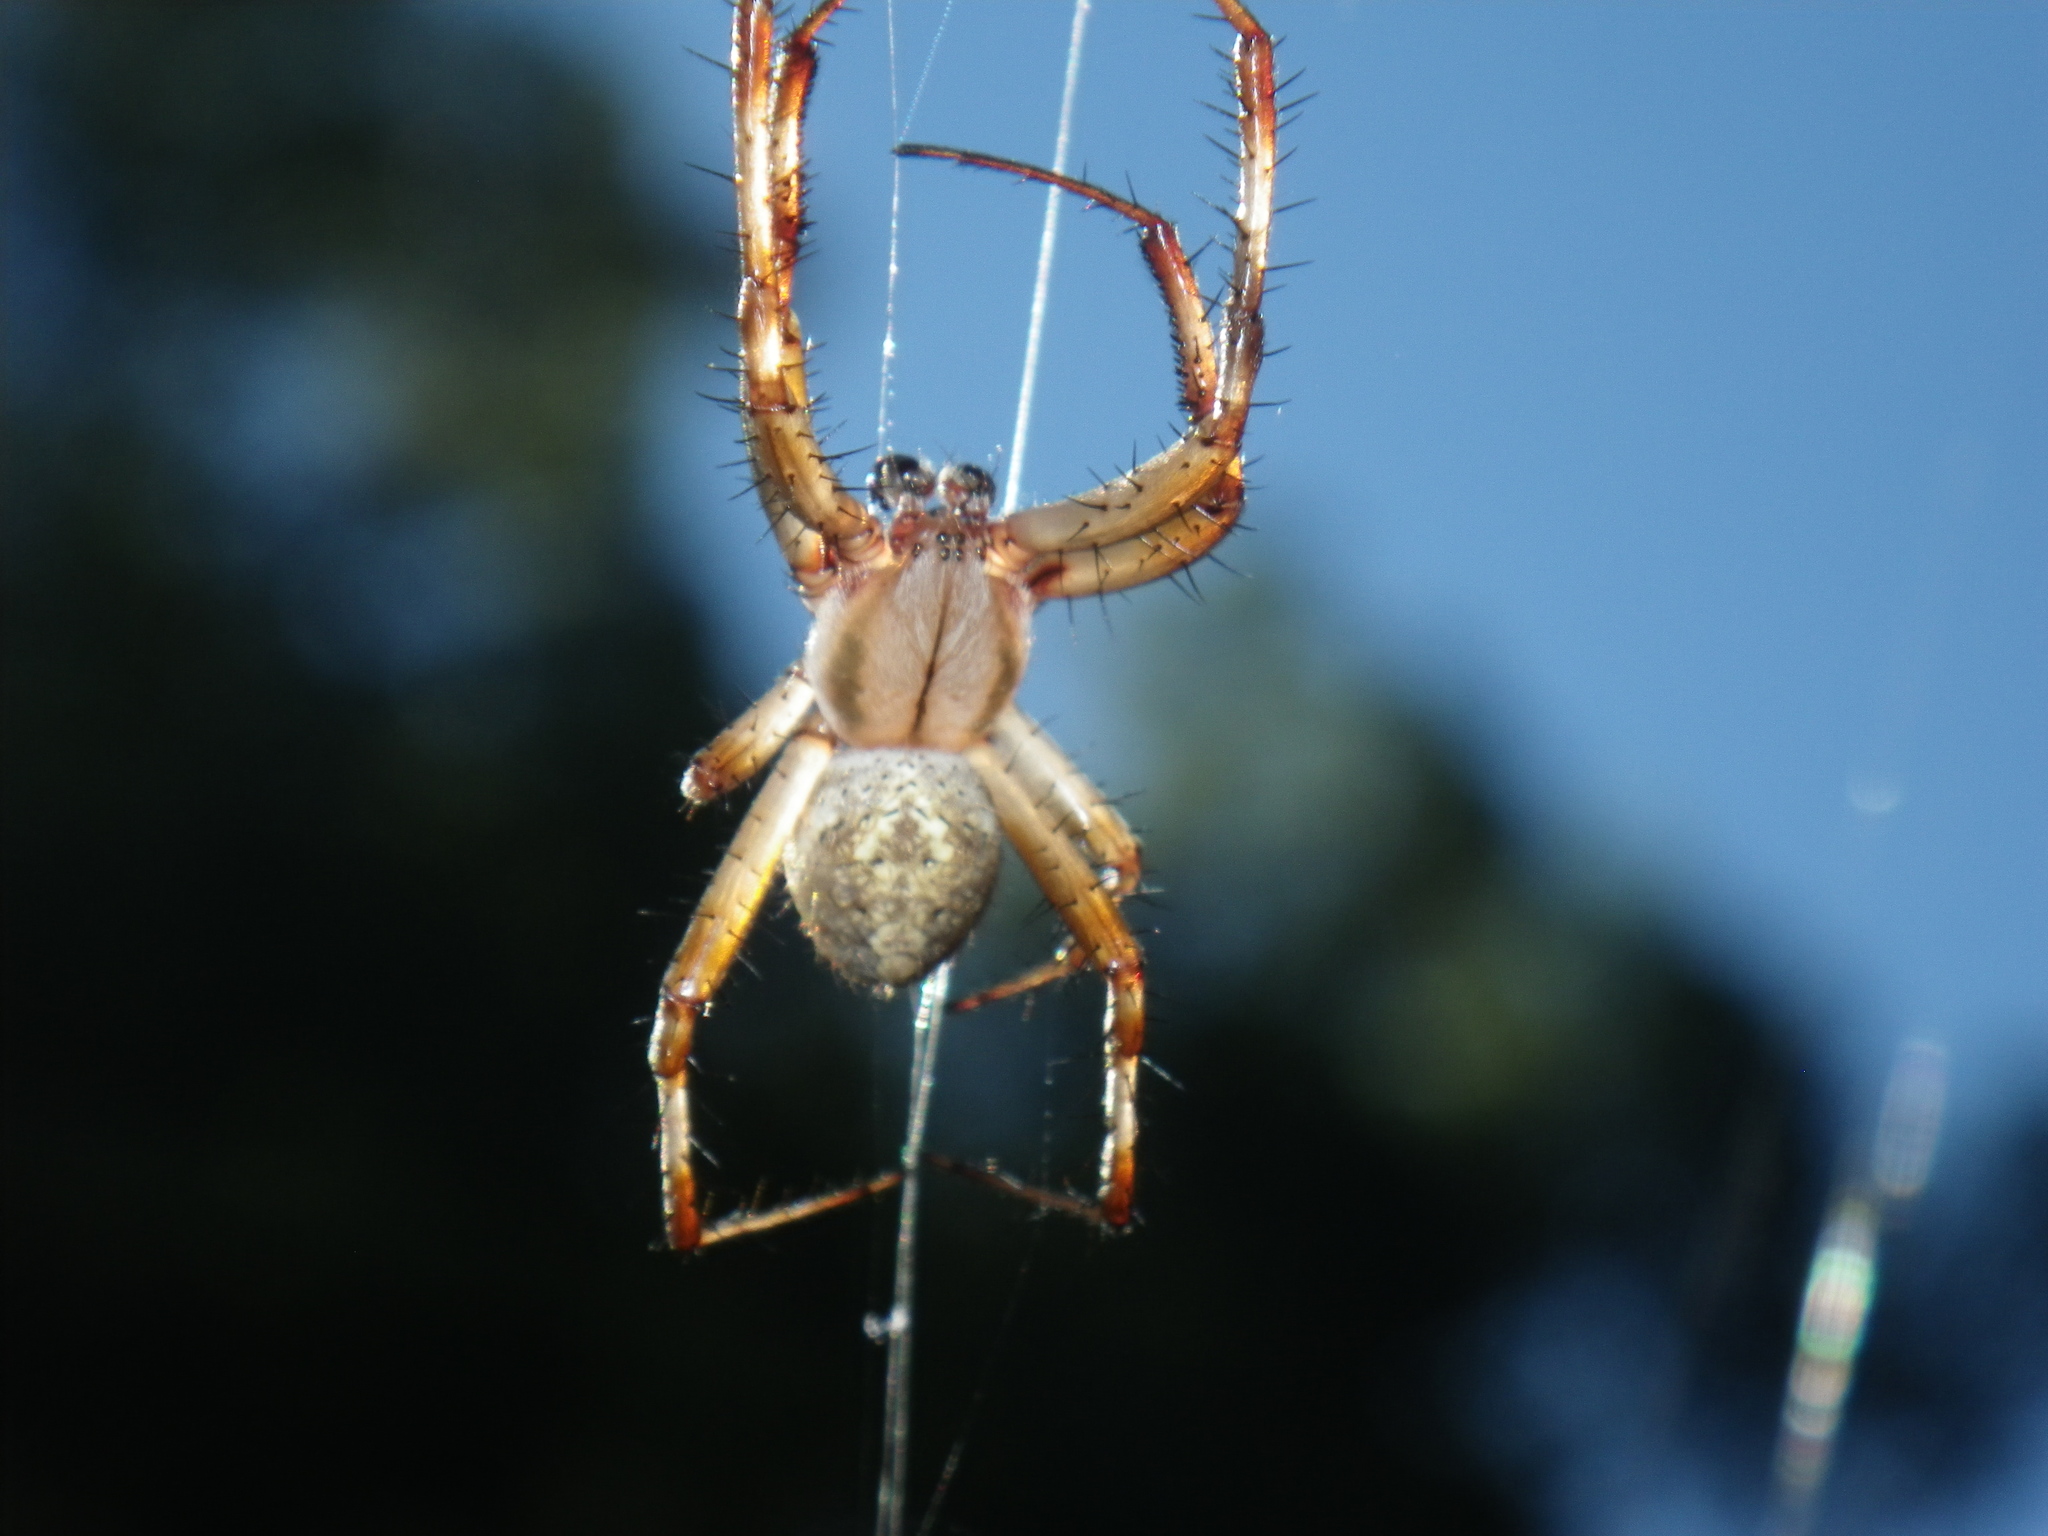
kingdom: Animalia
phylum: Arthropoda
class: Arachnida
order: Araneae
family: Araneidae
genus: Neoscona
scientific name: Neoscona oaxacensis
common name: Orb weavers
